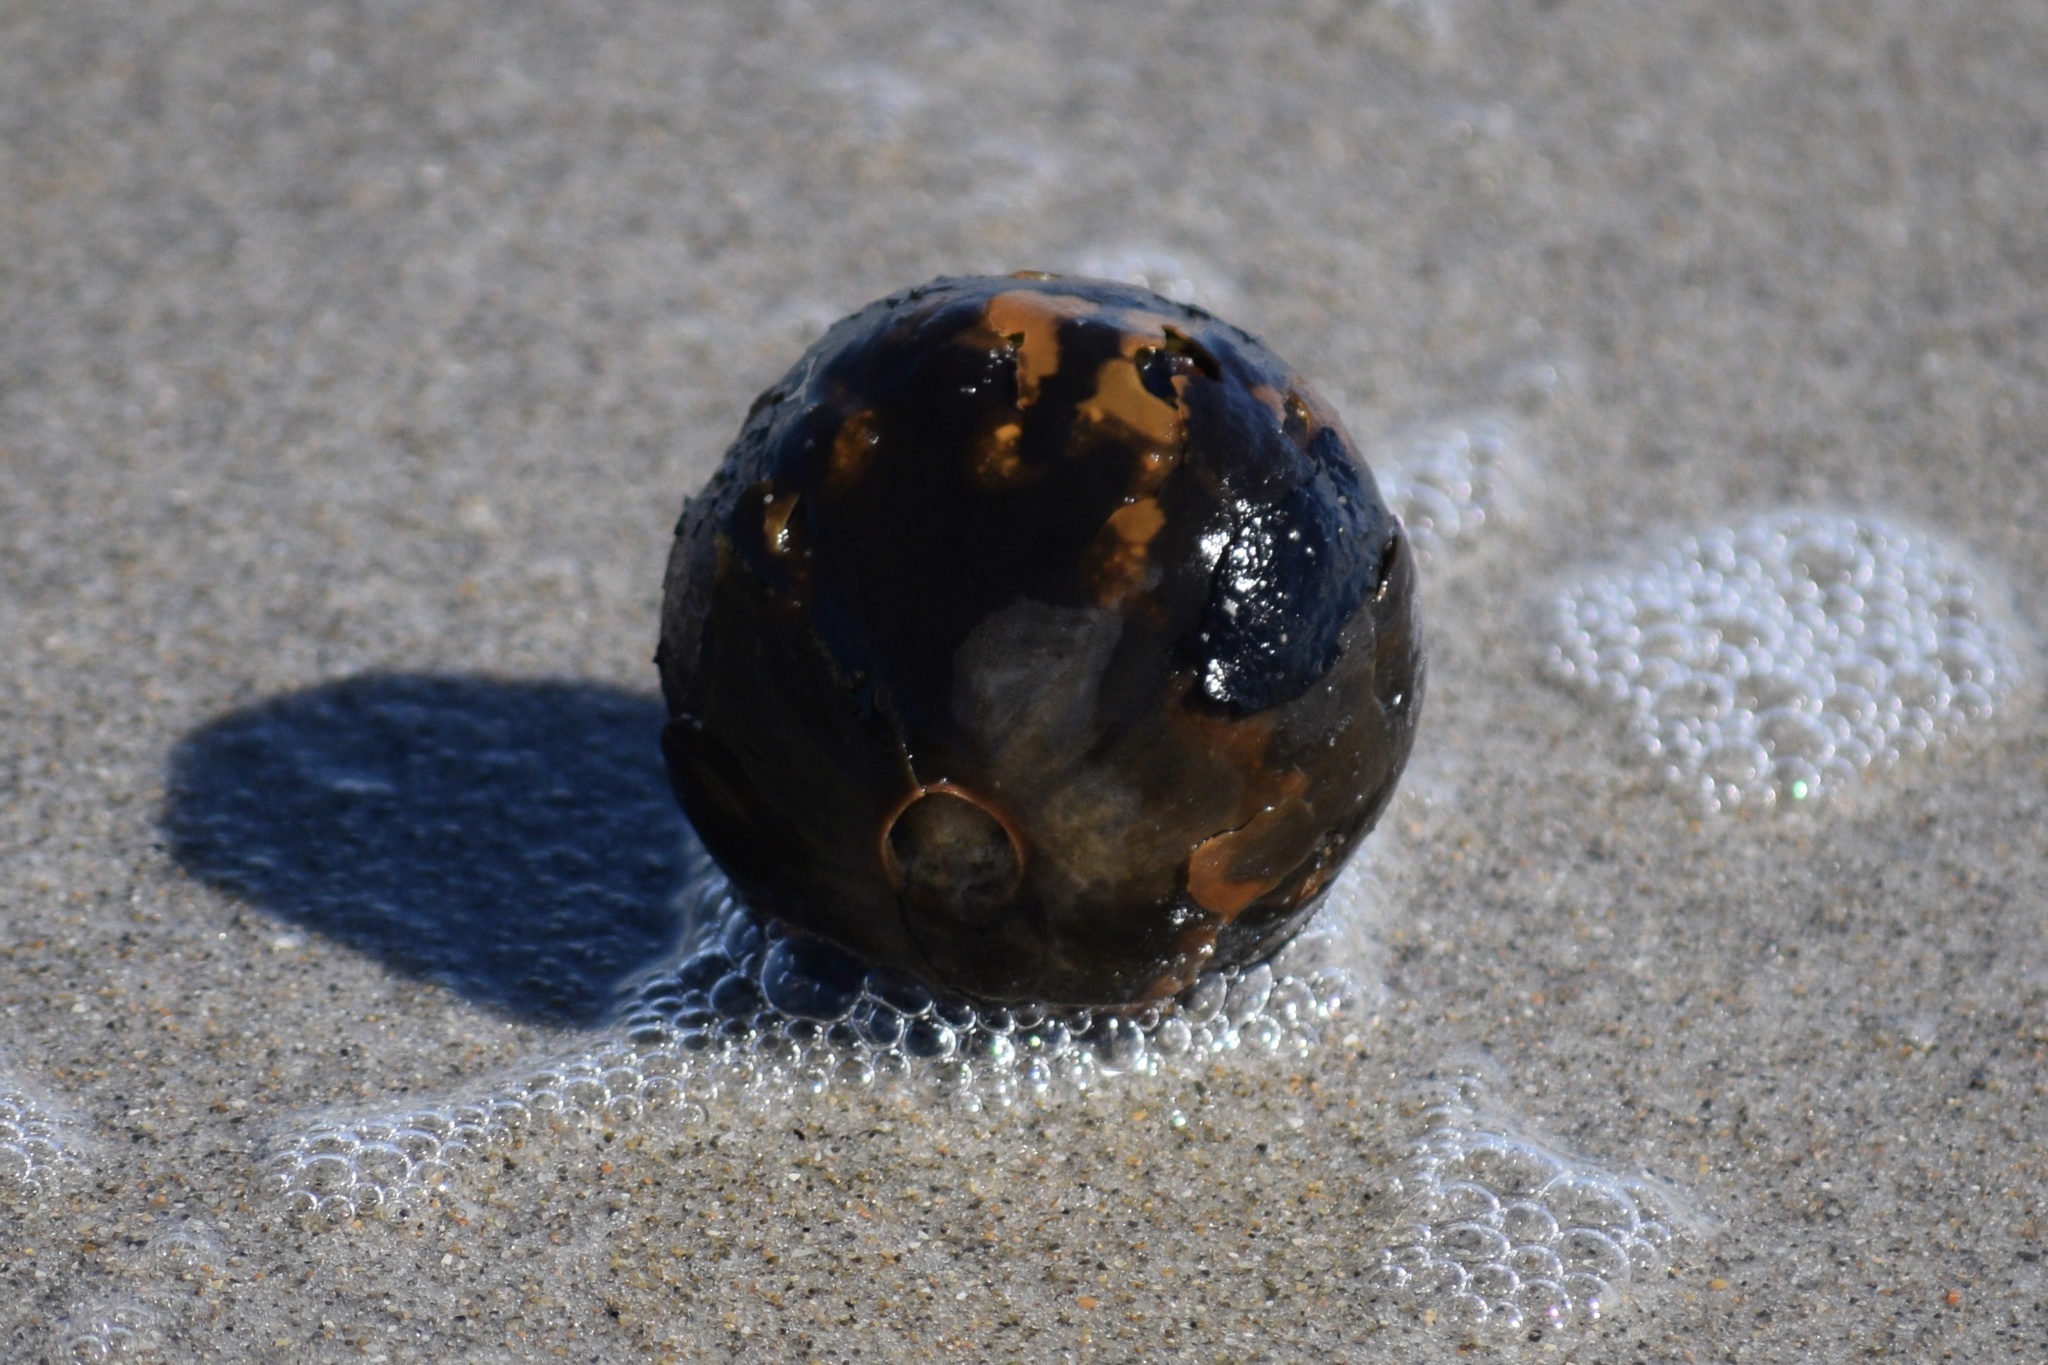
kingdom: Plantae
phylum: Tracheophyta
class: Liliopsida
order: Arecales
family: Arecaceae
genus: Manicaria
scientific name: Manicaria saccifera
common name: Sea coconut
